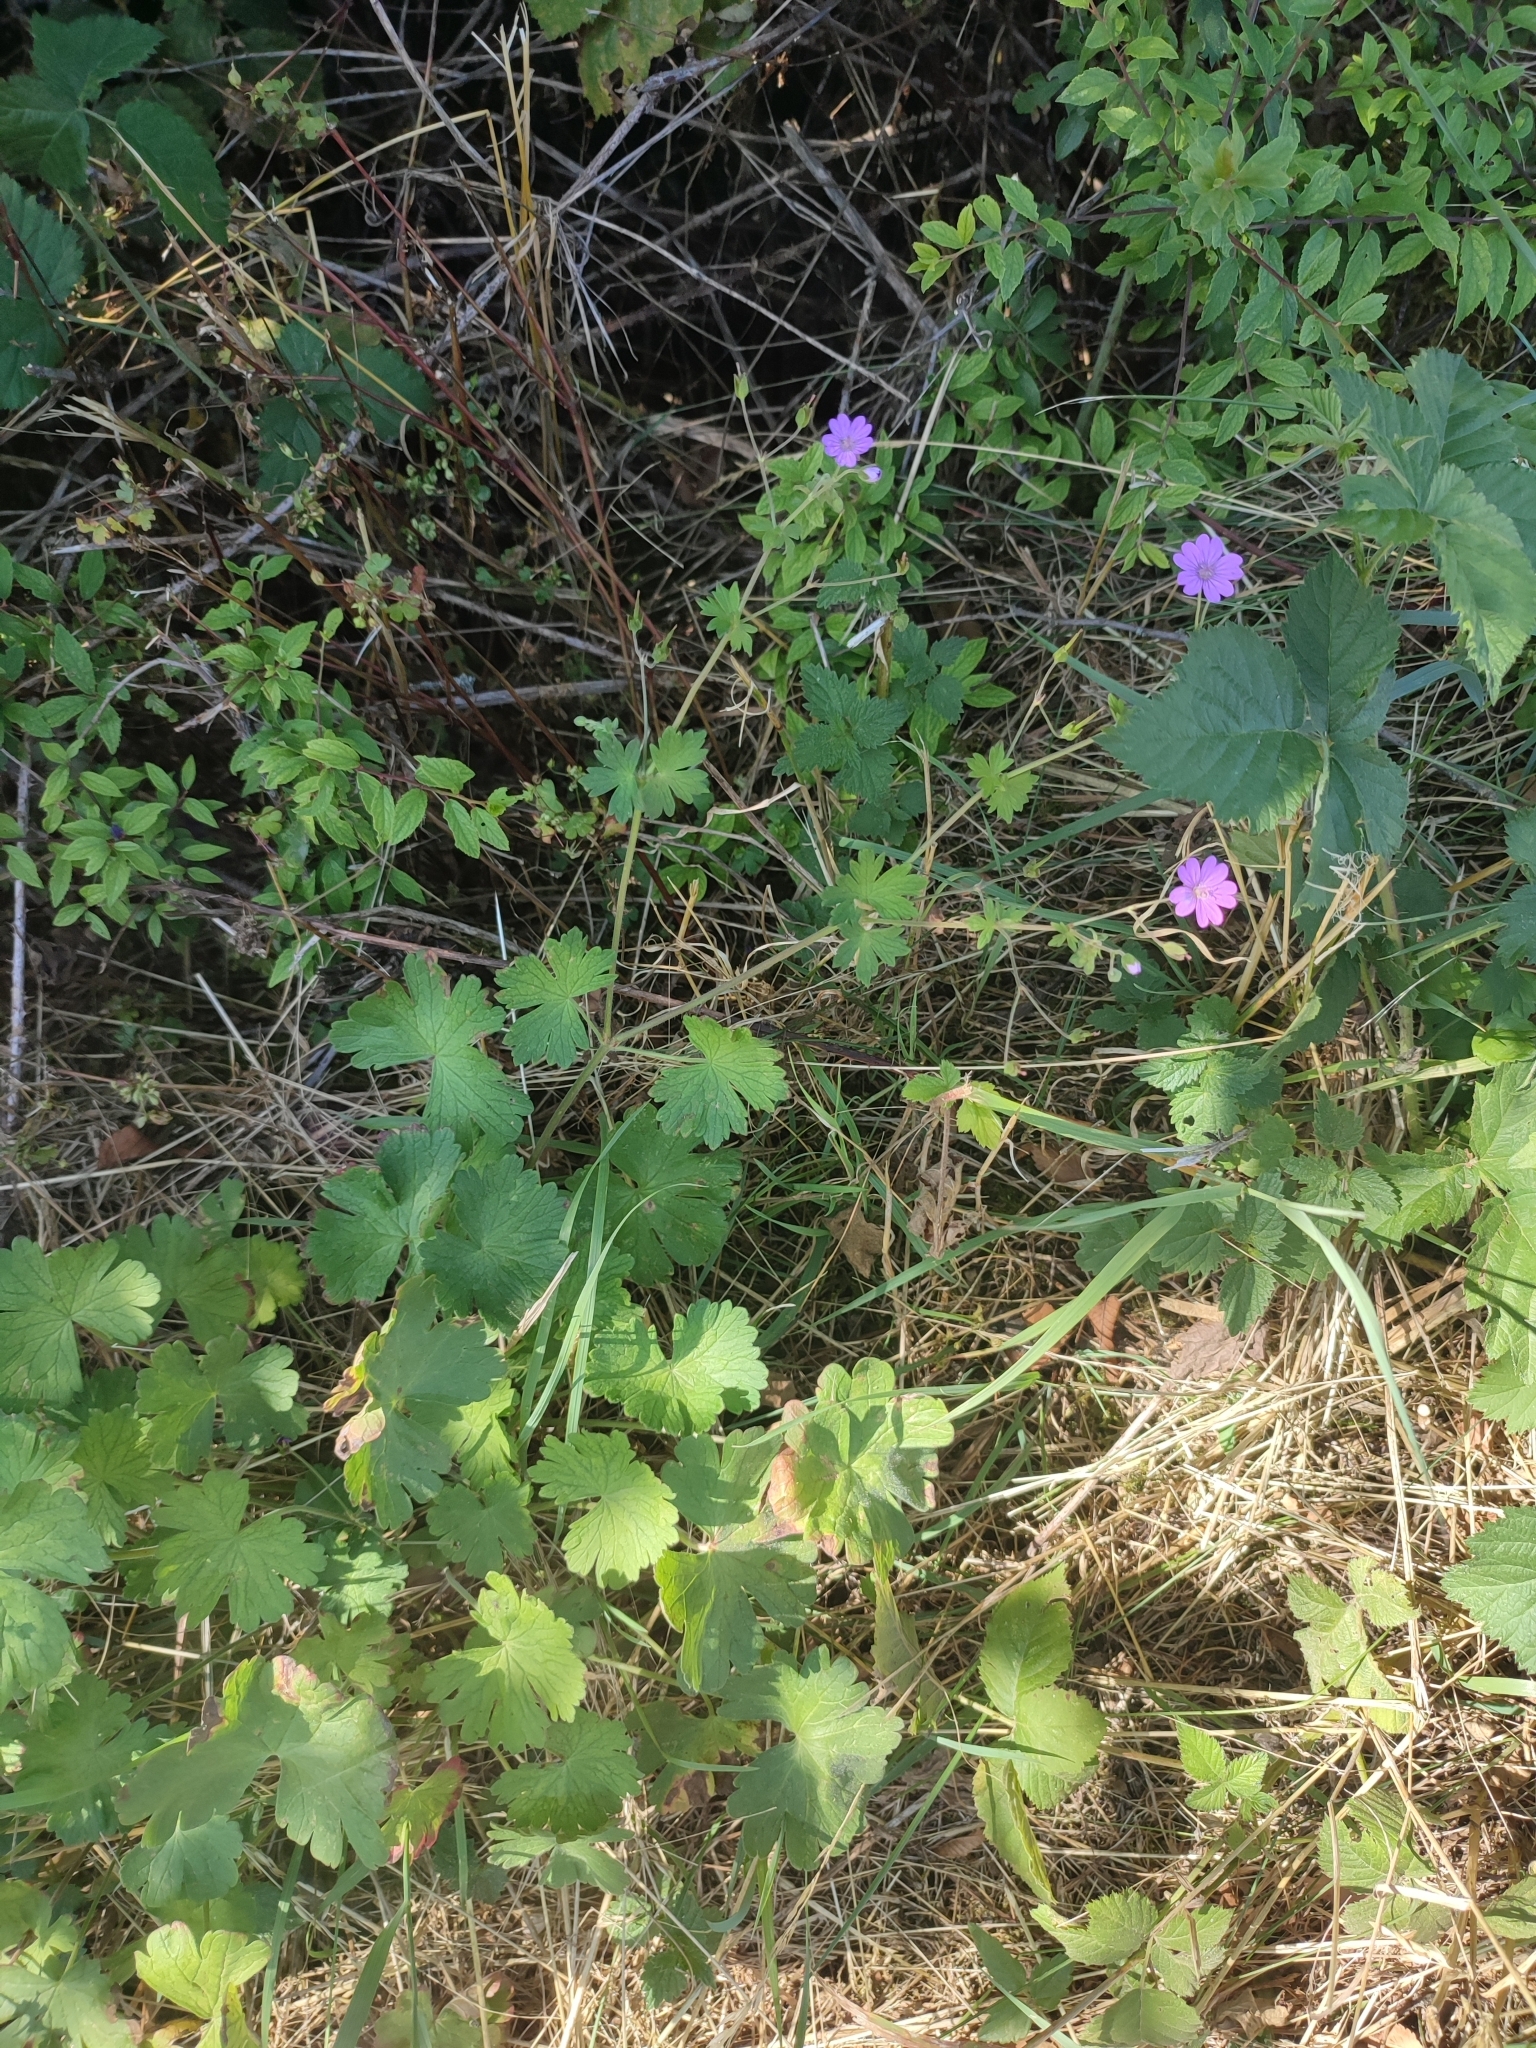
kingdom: Plantae
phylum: Tracheophyta
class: Magnoliopsida
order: Geraniales
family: Geraniaceae
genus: Geranium
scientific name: Geranium pyrenaicum
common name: Hedgerow crane's-bill
